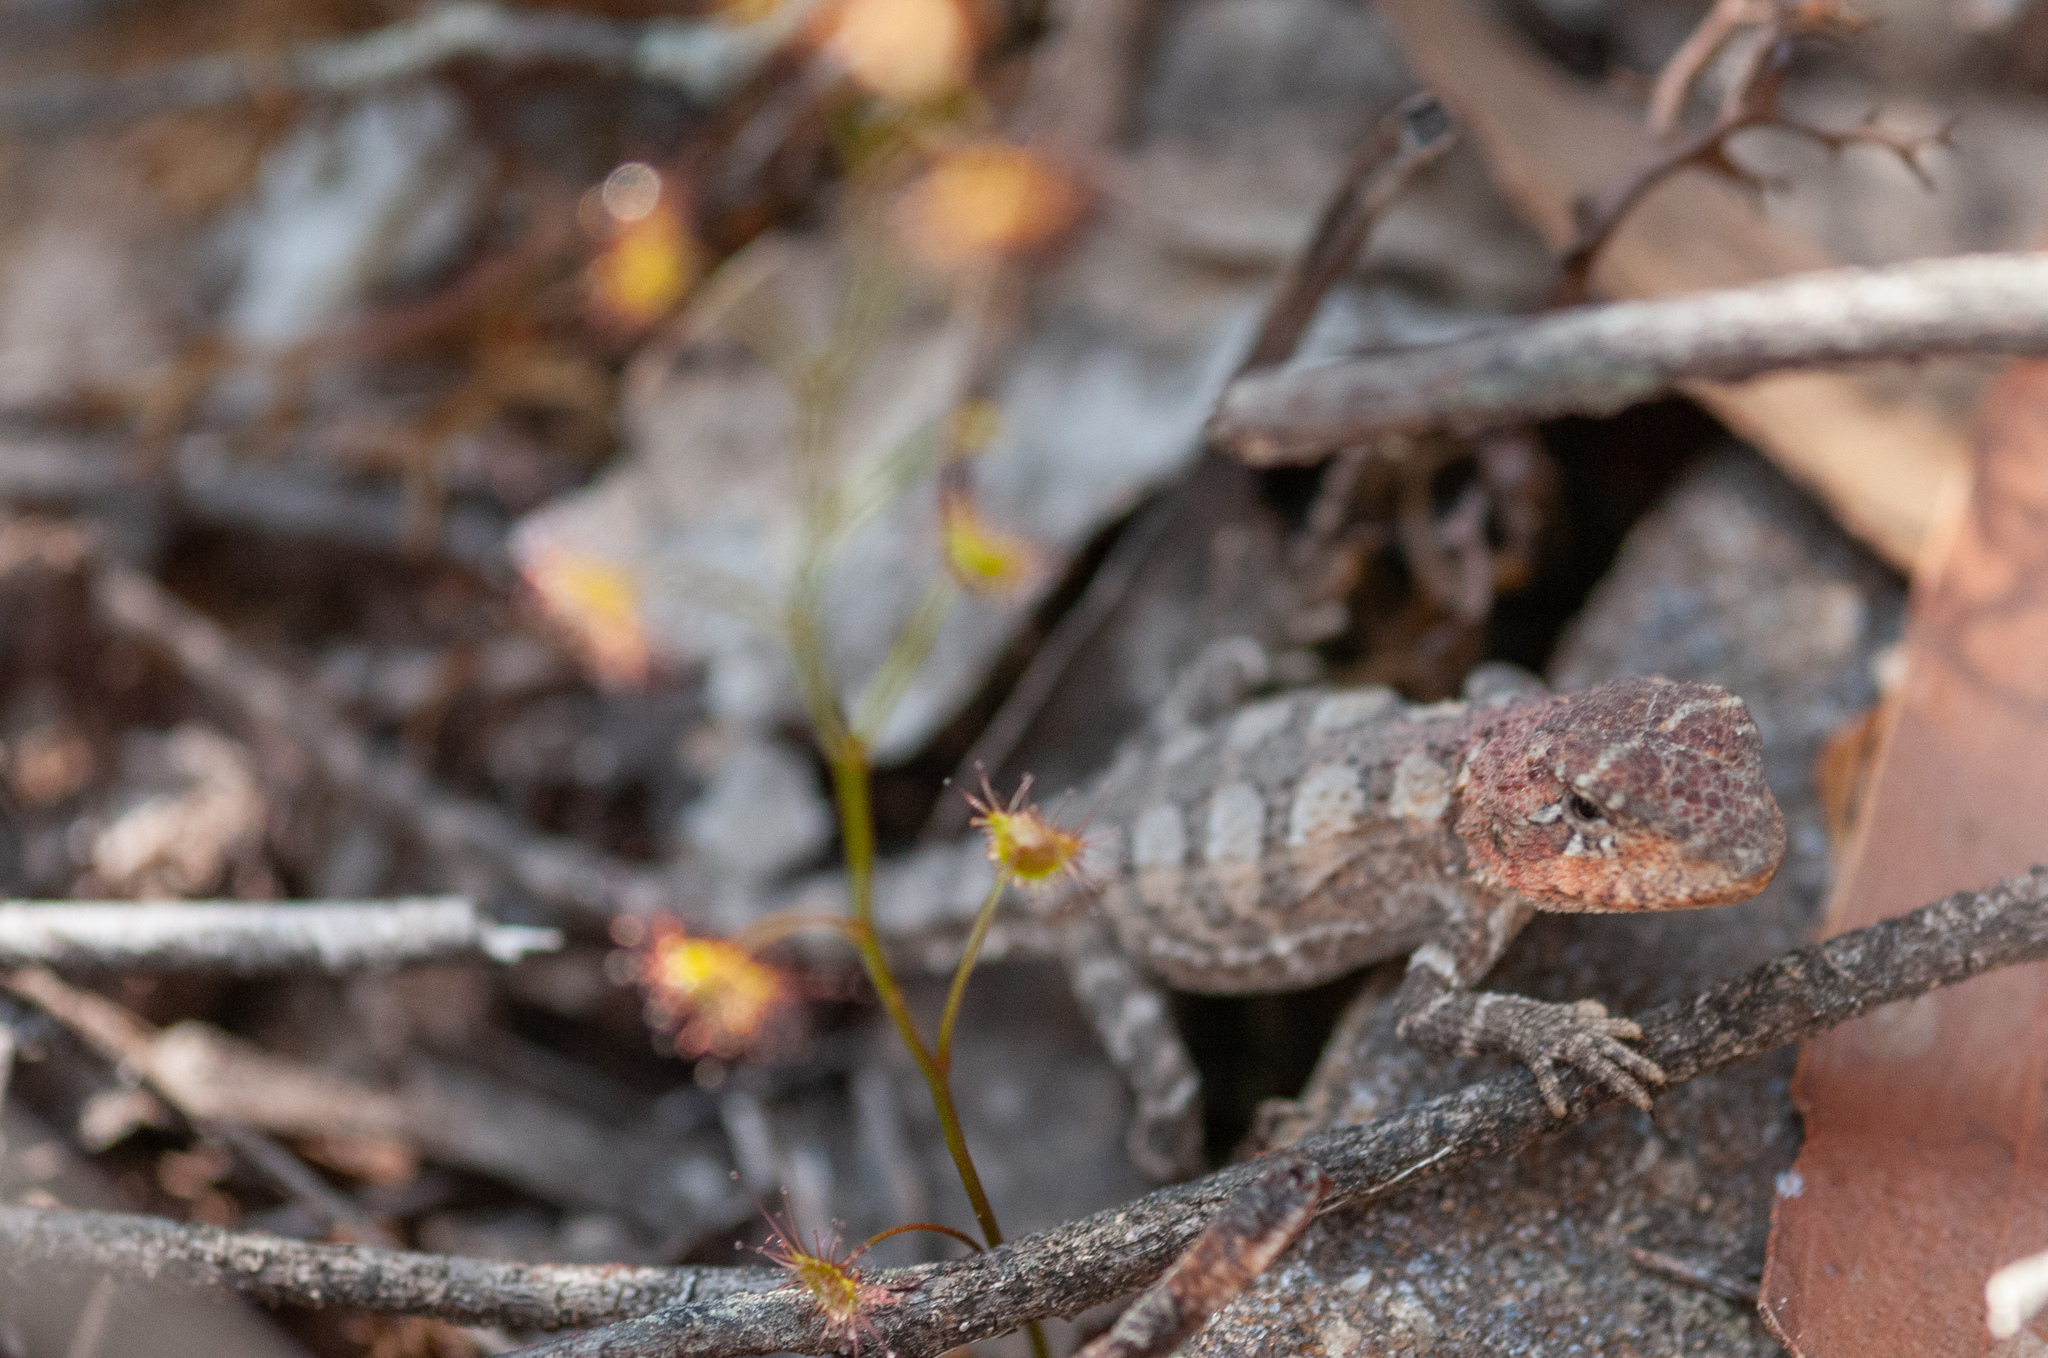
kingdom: Animalia
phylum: Chordata
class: Squamata
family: Agamidae
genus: Rankinia
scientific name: Rankinia diemensis
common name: Mountain dragon
